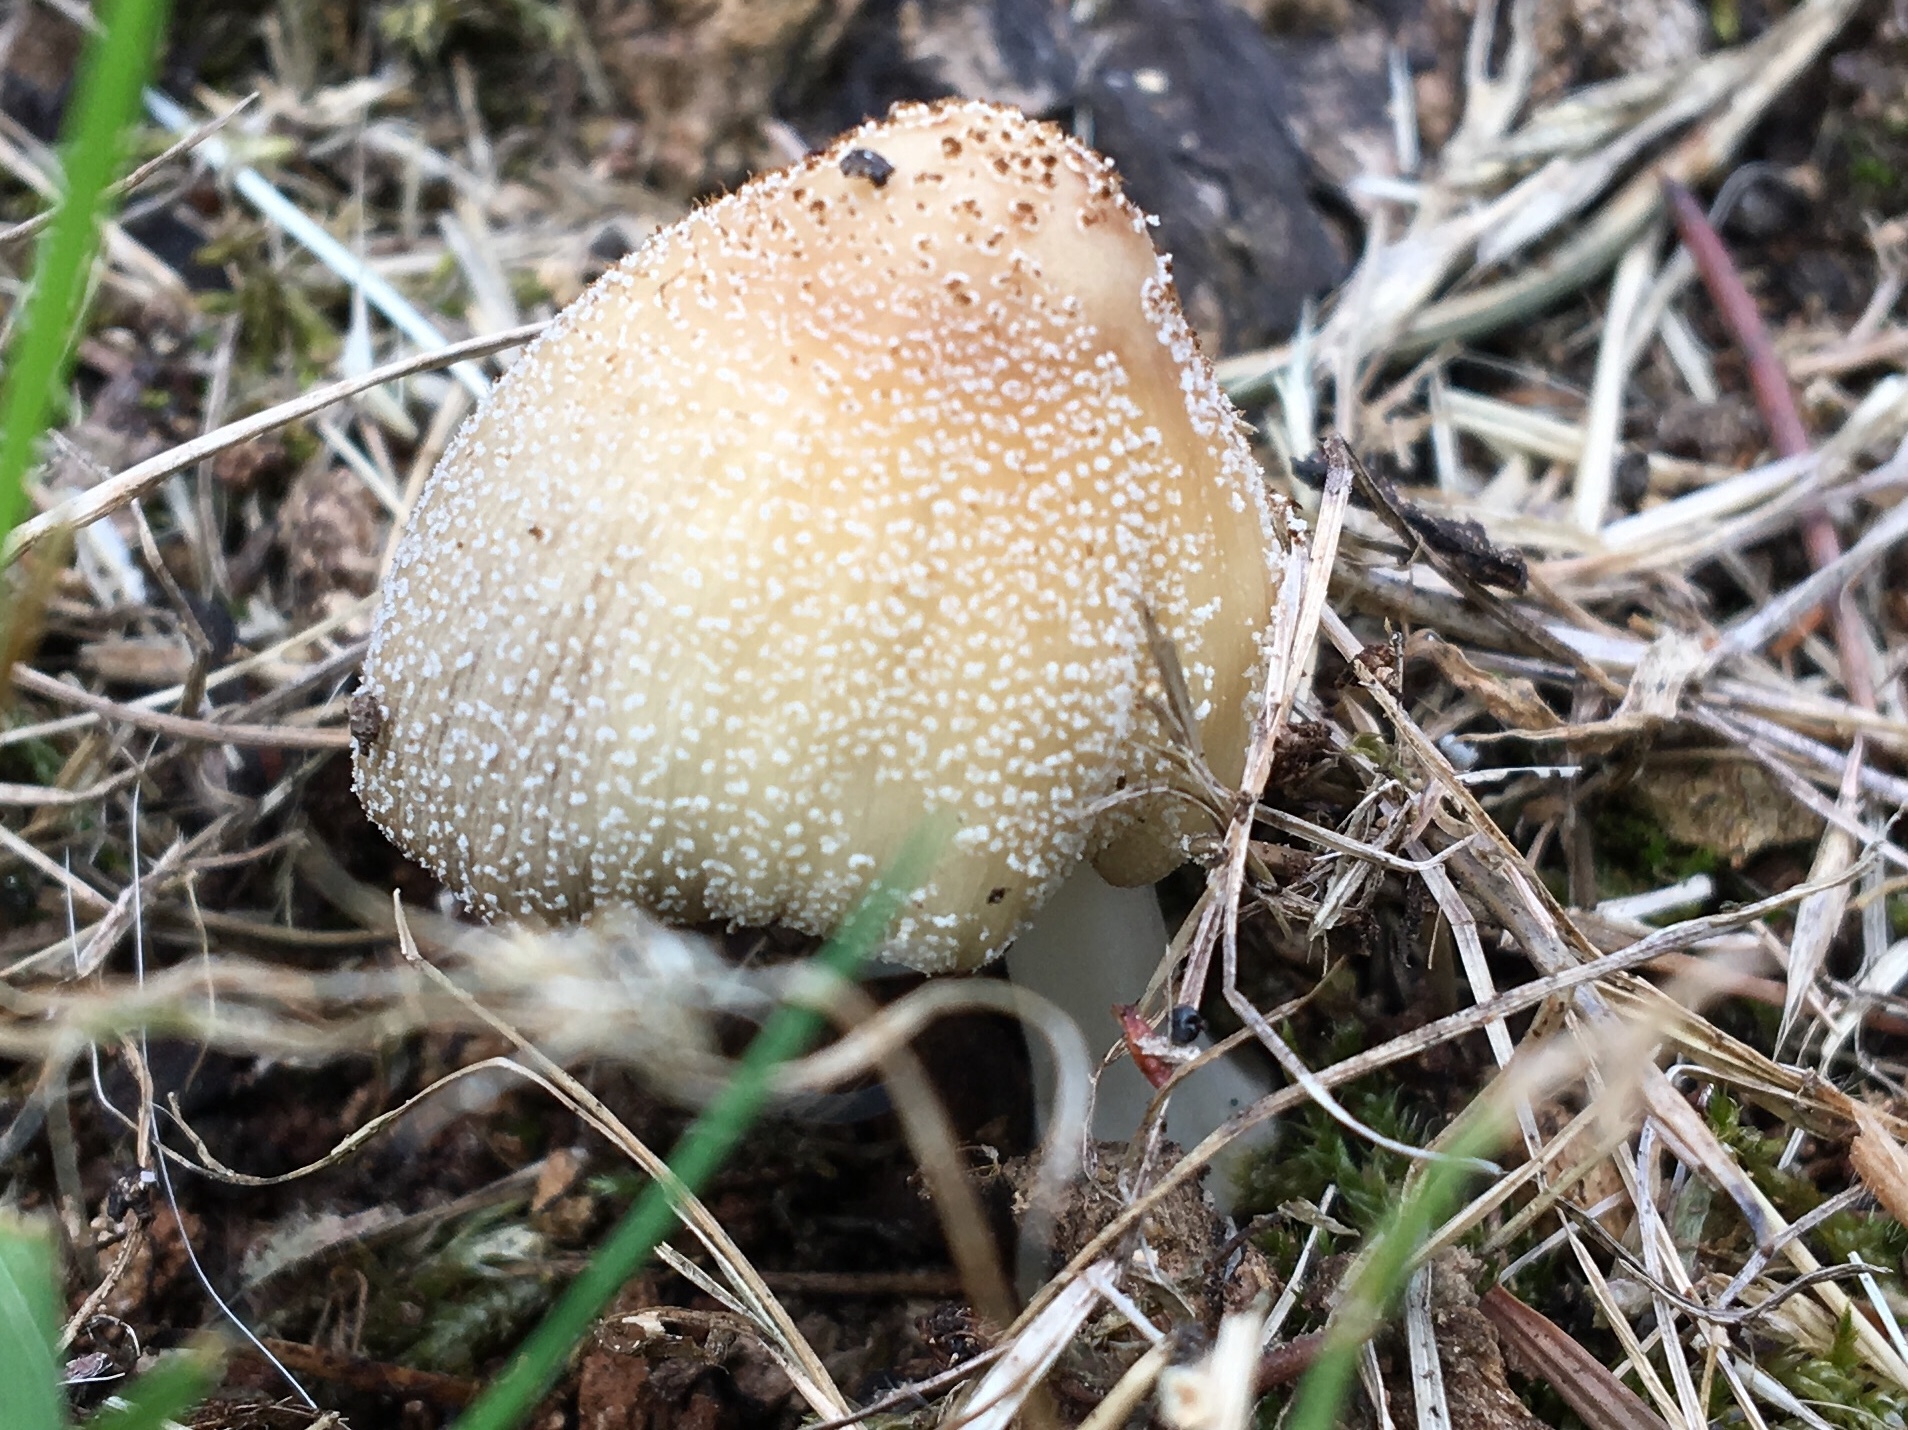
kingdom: Fungi
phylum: Basidiomycota
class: Agaricomycetes
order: Agaricales
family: Psathyrellaceae
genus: Coprinellus
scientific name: Coprinellus micaceus
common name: Glistening ink-cap
